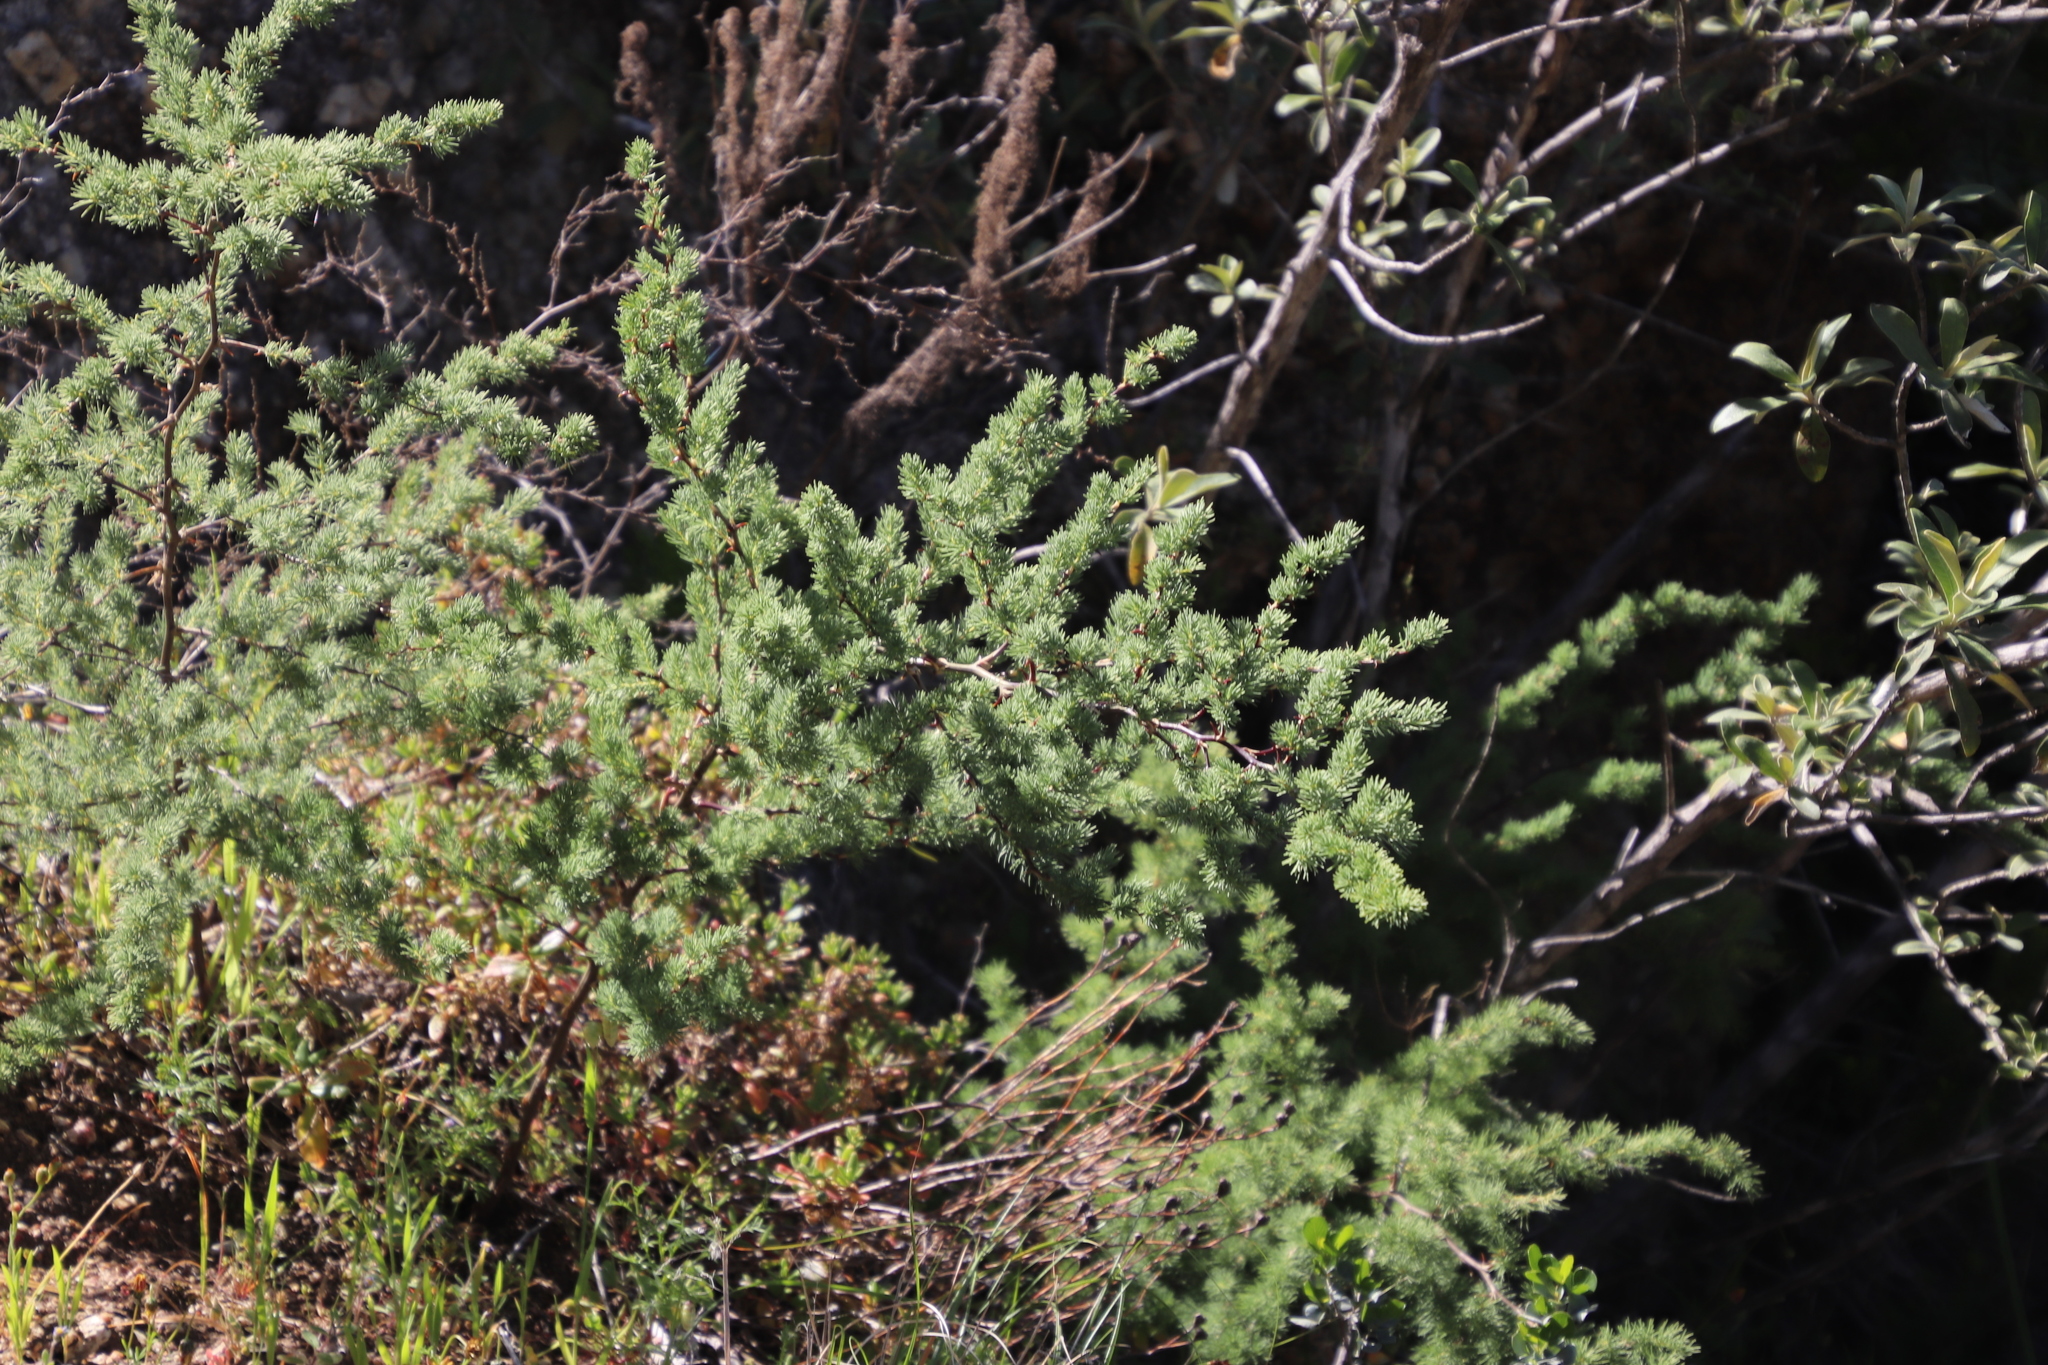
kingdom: Plantae
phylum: Tracheophyta
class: Liliopsida
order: Asparagales
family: Asparagaceae
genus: Asparagus
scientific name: Asparagus rubicundus
